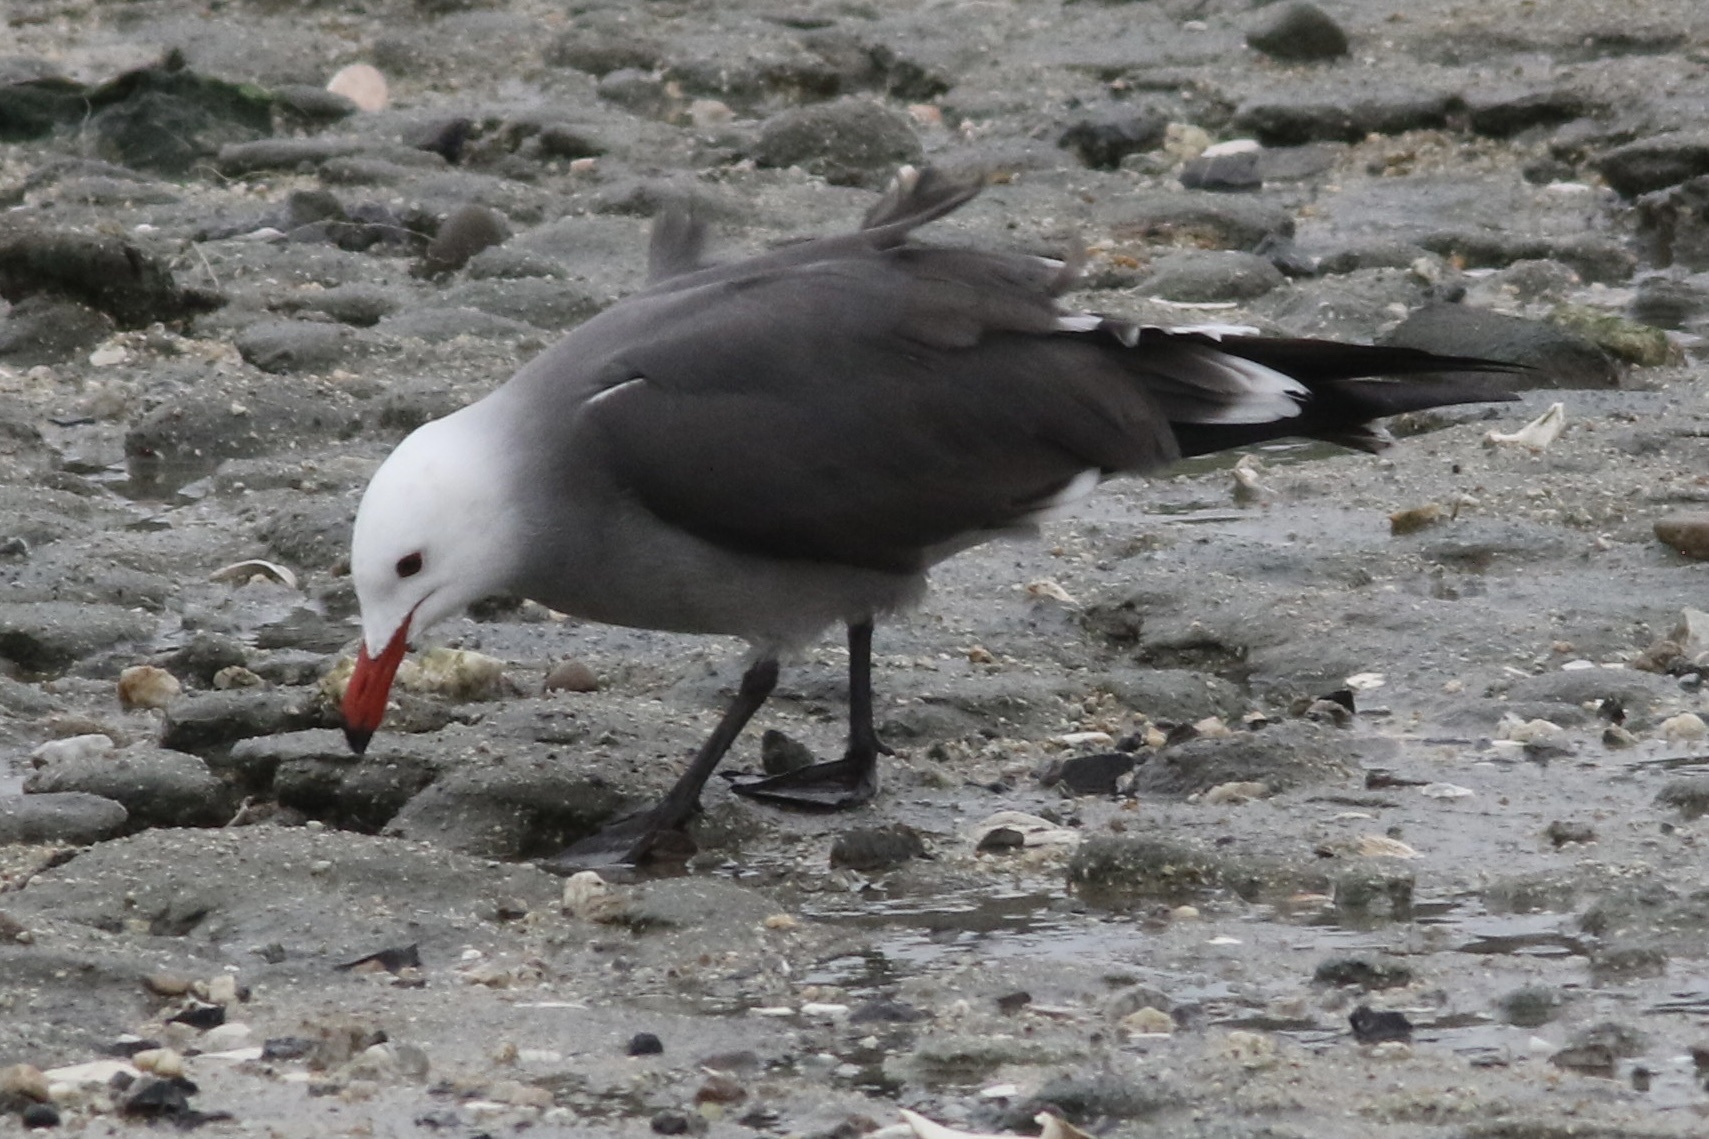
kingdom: Animalia
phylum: Chordata
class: Aves
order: Charadriiformes
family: Laridae
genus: Larus
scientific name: Larus heermanni
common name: Heermann's gull
